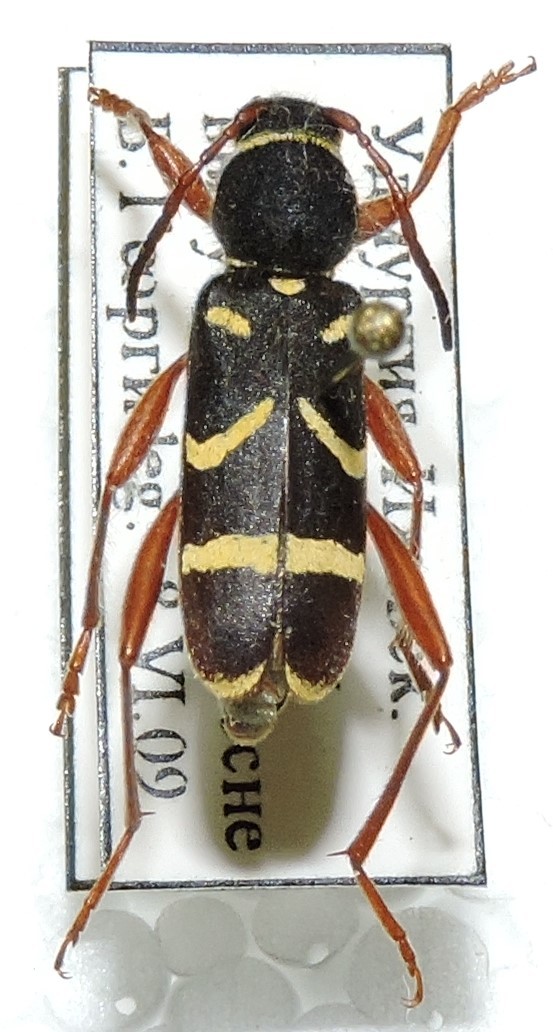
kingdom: Animalia
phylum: Arthropoda
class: Insecta
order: Coleoptera
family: Cerambycidae
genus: Clytus
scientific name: Clytus arietoides
